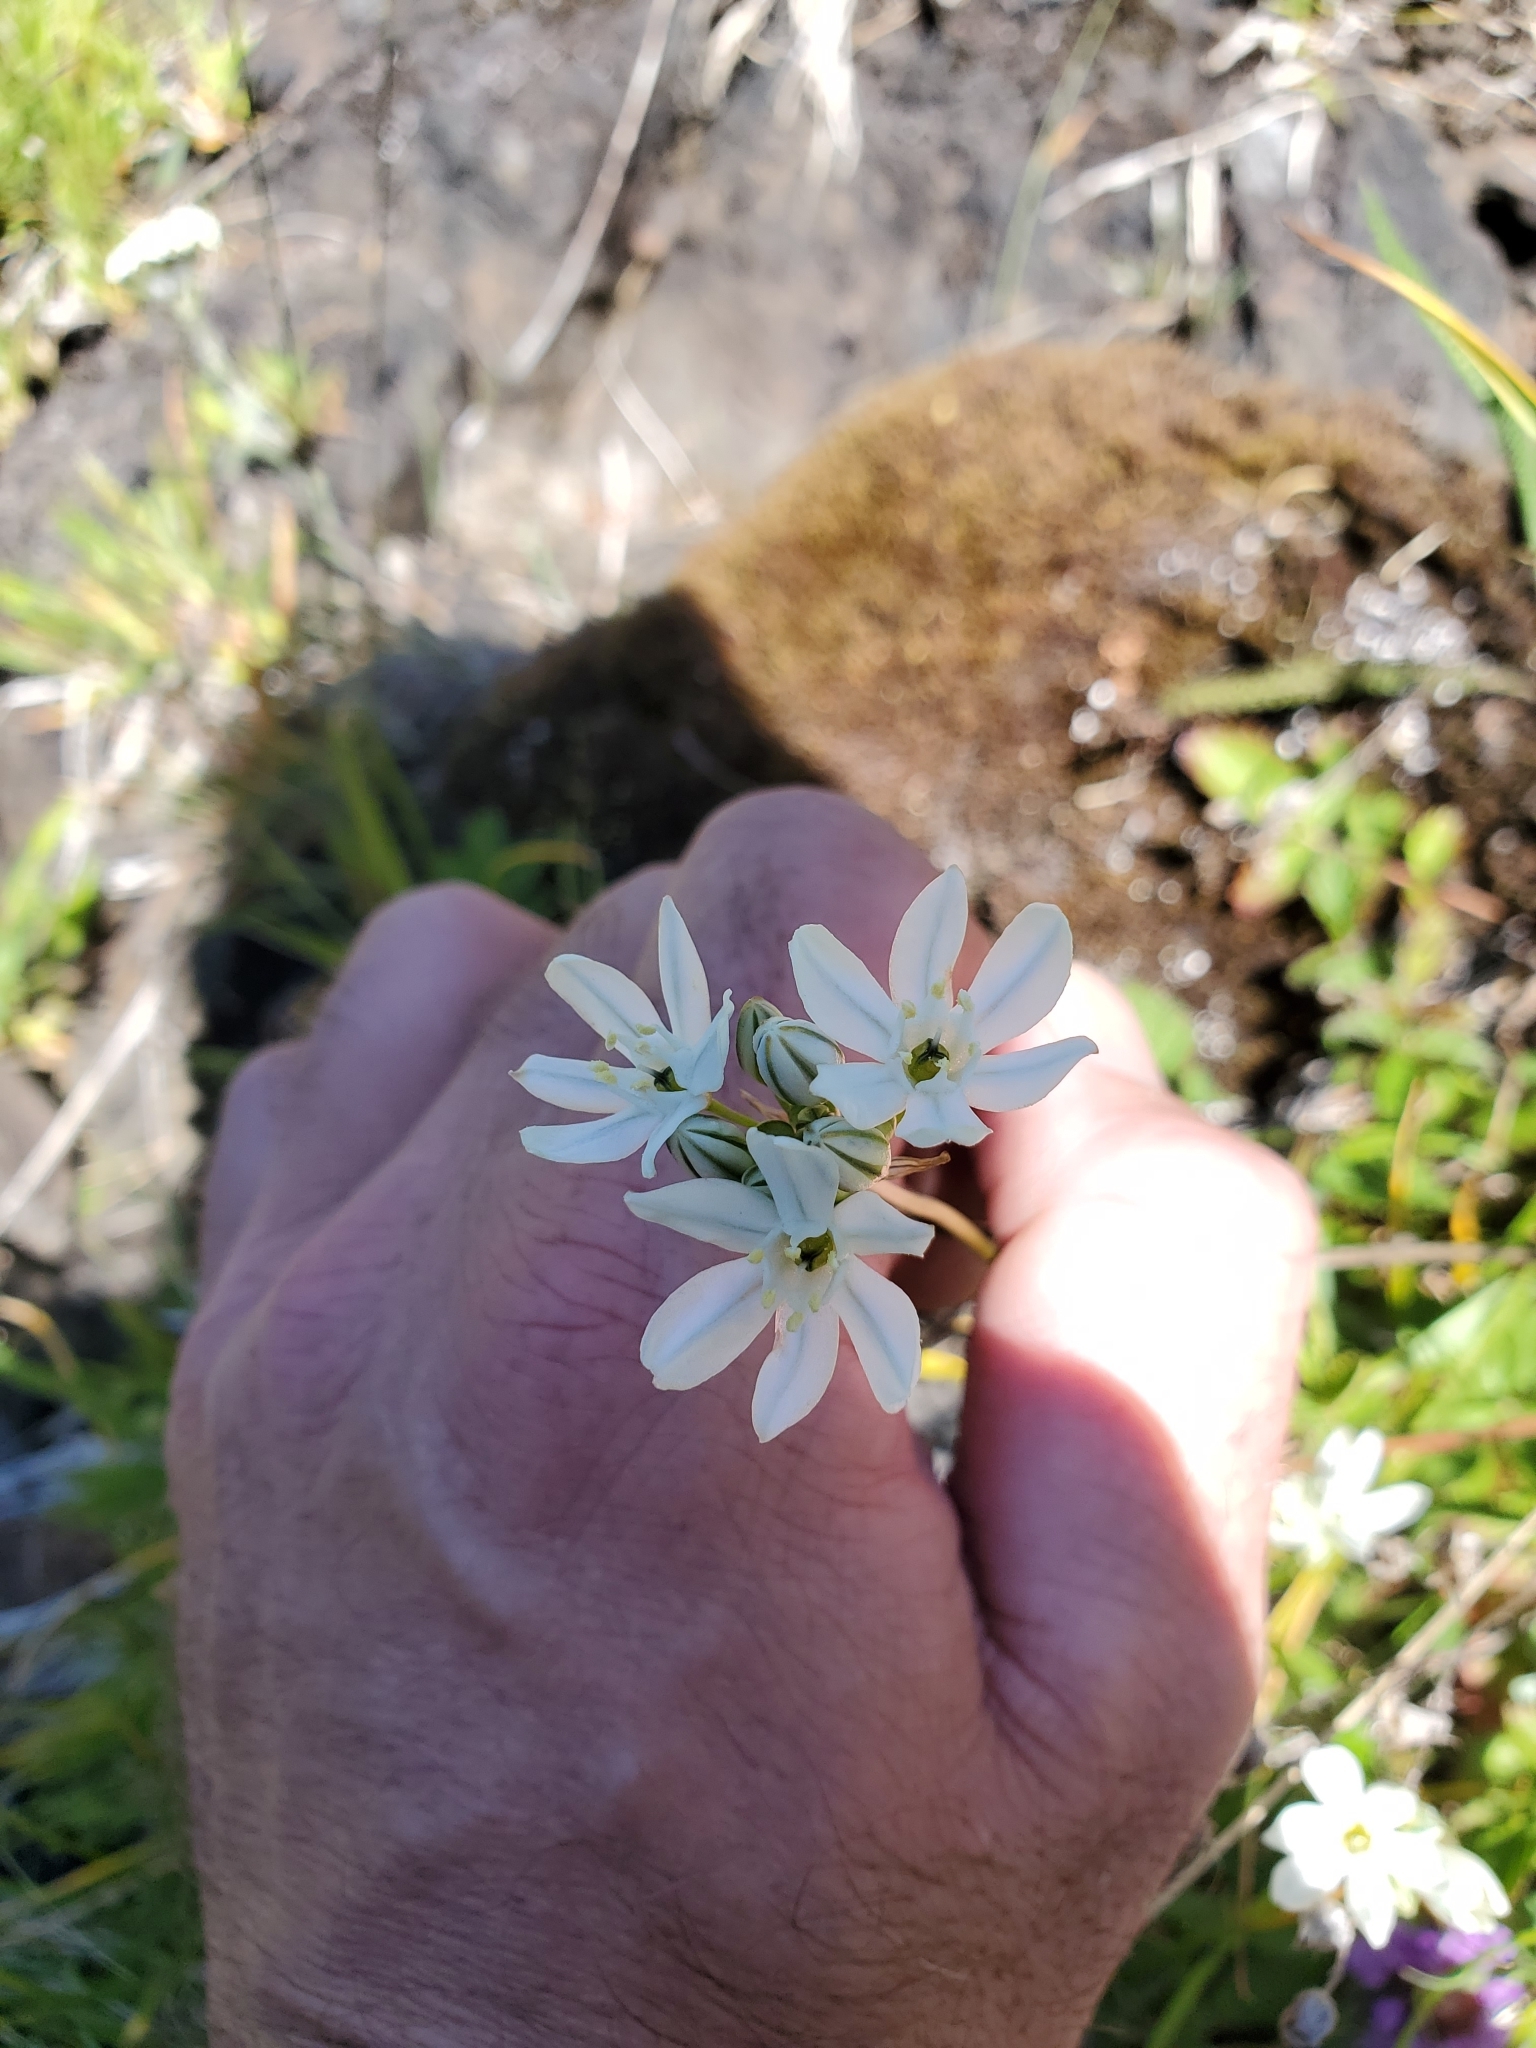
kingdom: Plantae
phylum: Tracheophyta
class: Liliopsida
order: Asparagales
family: Asparagaceae
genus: Triteleia
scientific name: Triteleia hyacinthina
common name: White brodiaea
